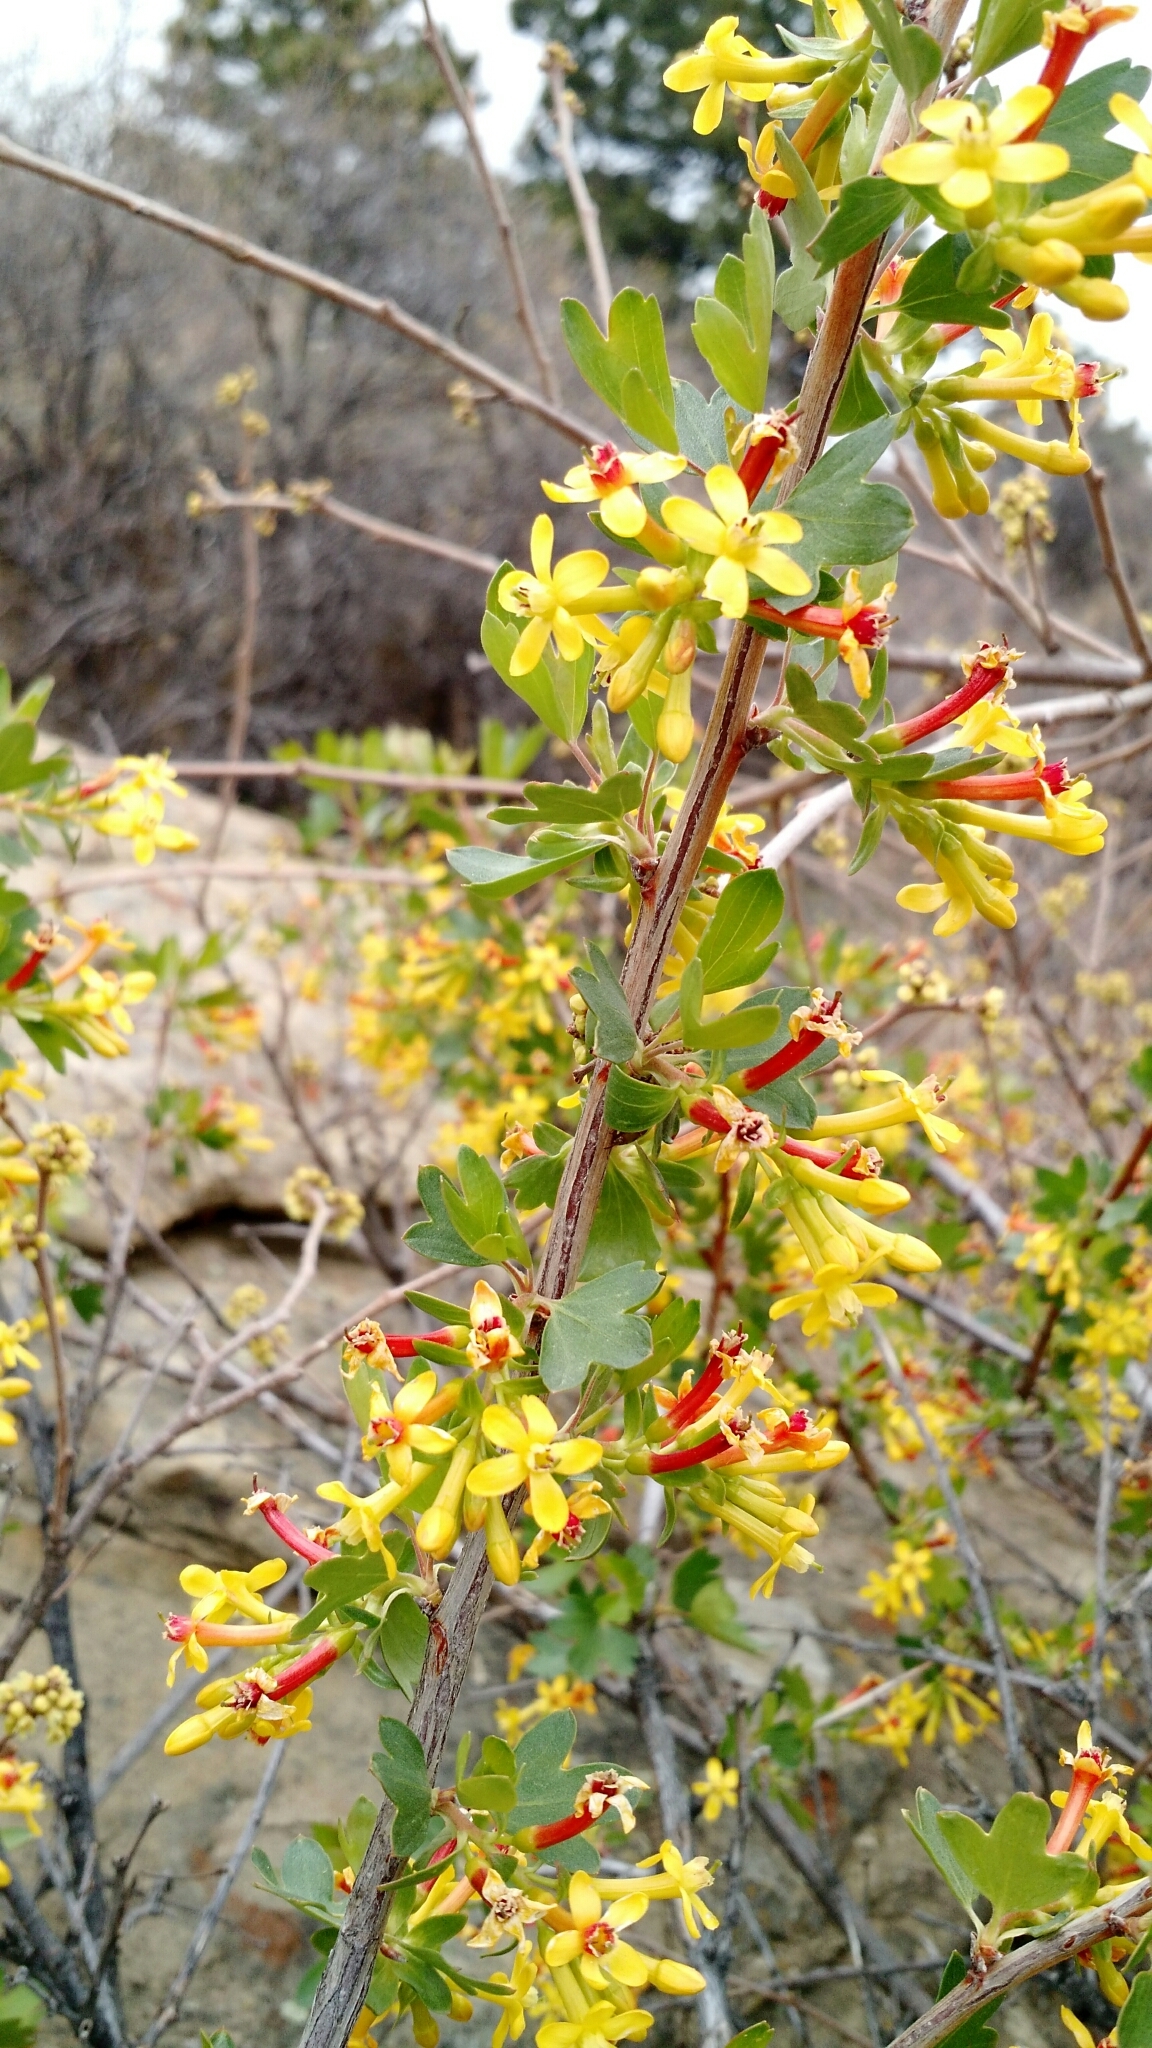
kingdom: Plantae
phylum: Tracheophyta
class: Magnoliopsida
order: Saxifragales
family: Grossulariaceae
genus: Ribes
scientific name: Ribes aureum
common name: Golden currant
